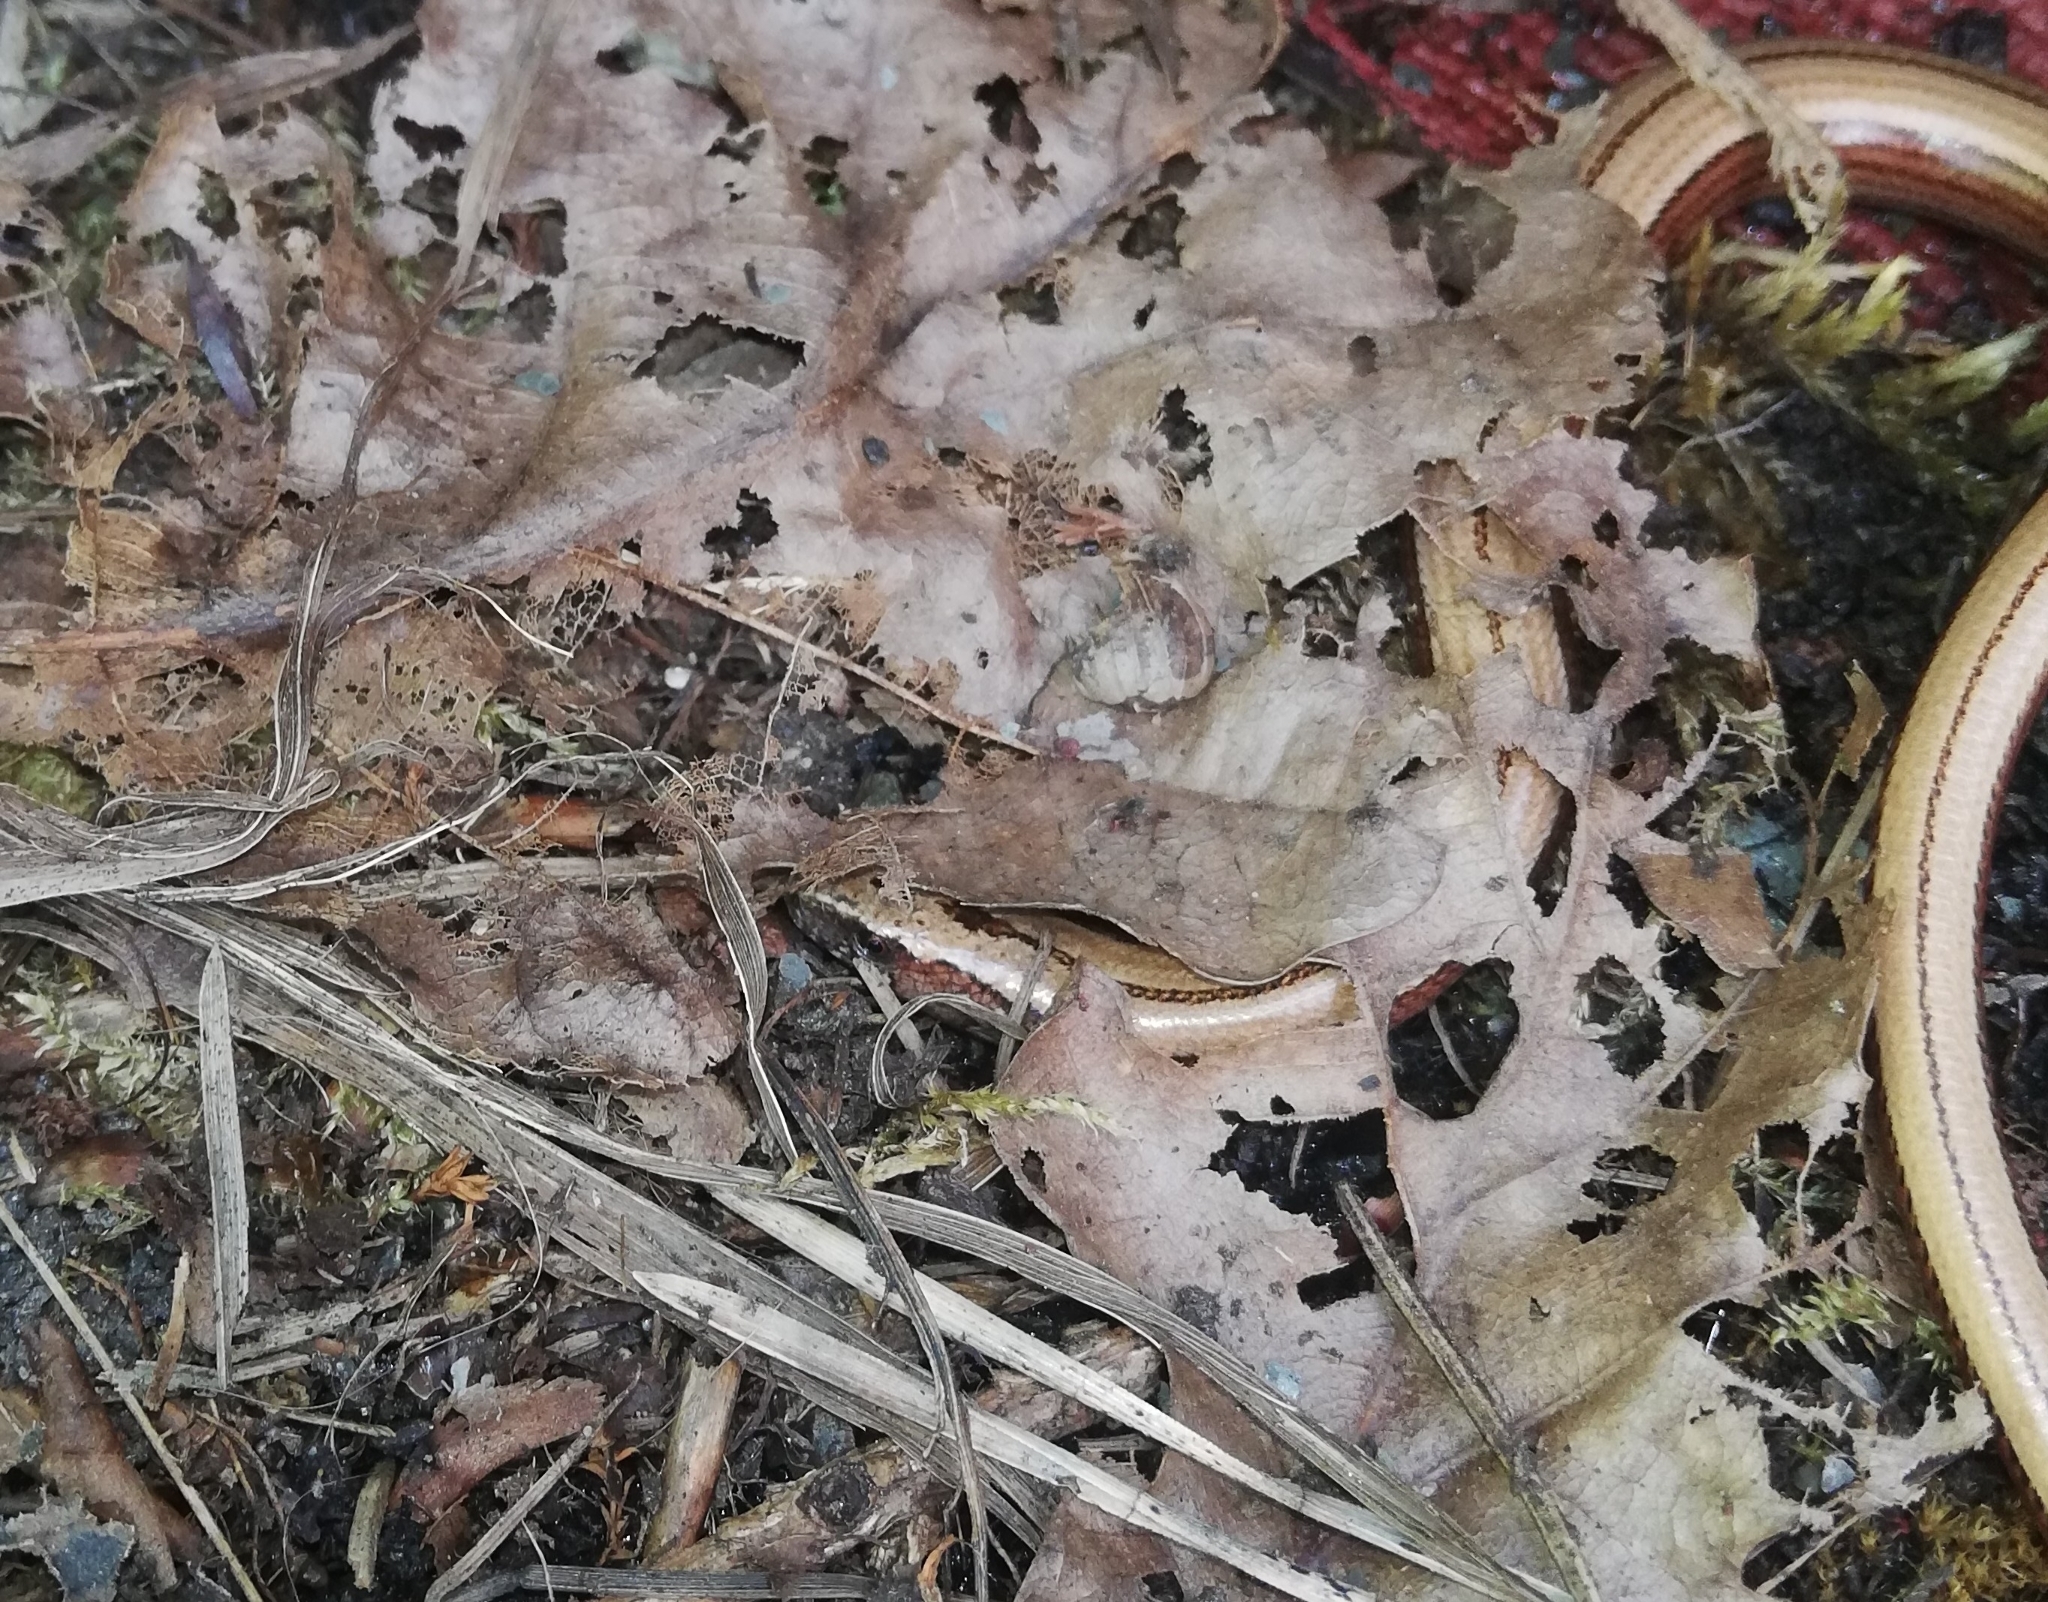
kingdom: Animalia
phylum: Chordata
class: Squamata
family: Anguidae
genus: Anguis
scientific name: Anguis fragilis
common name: Slow worm
